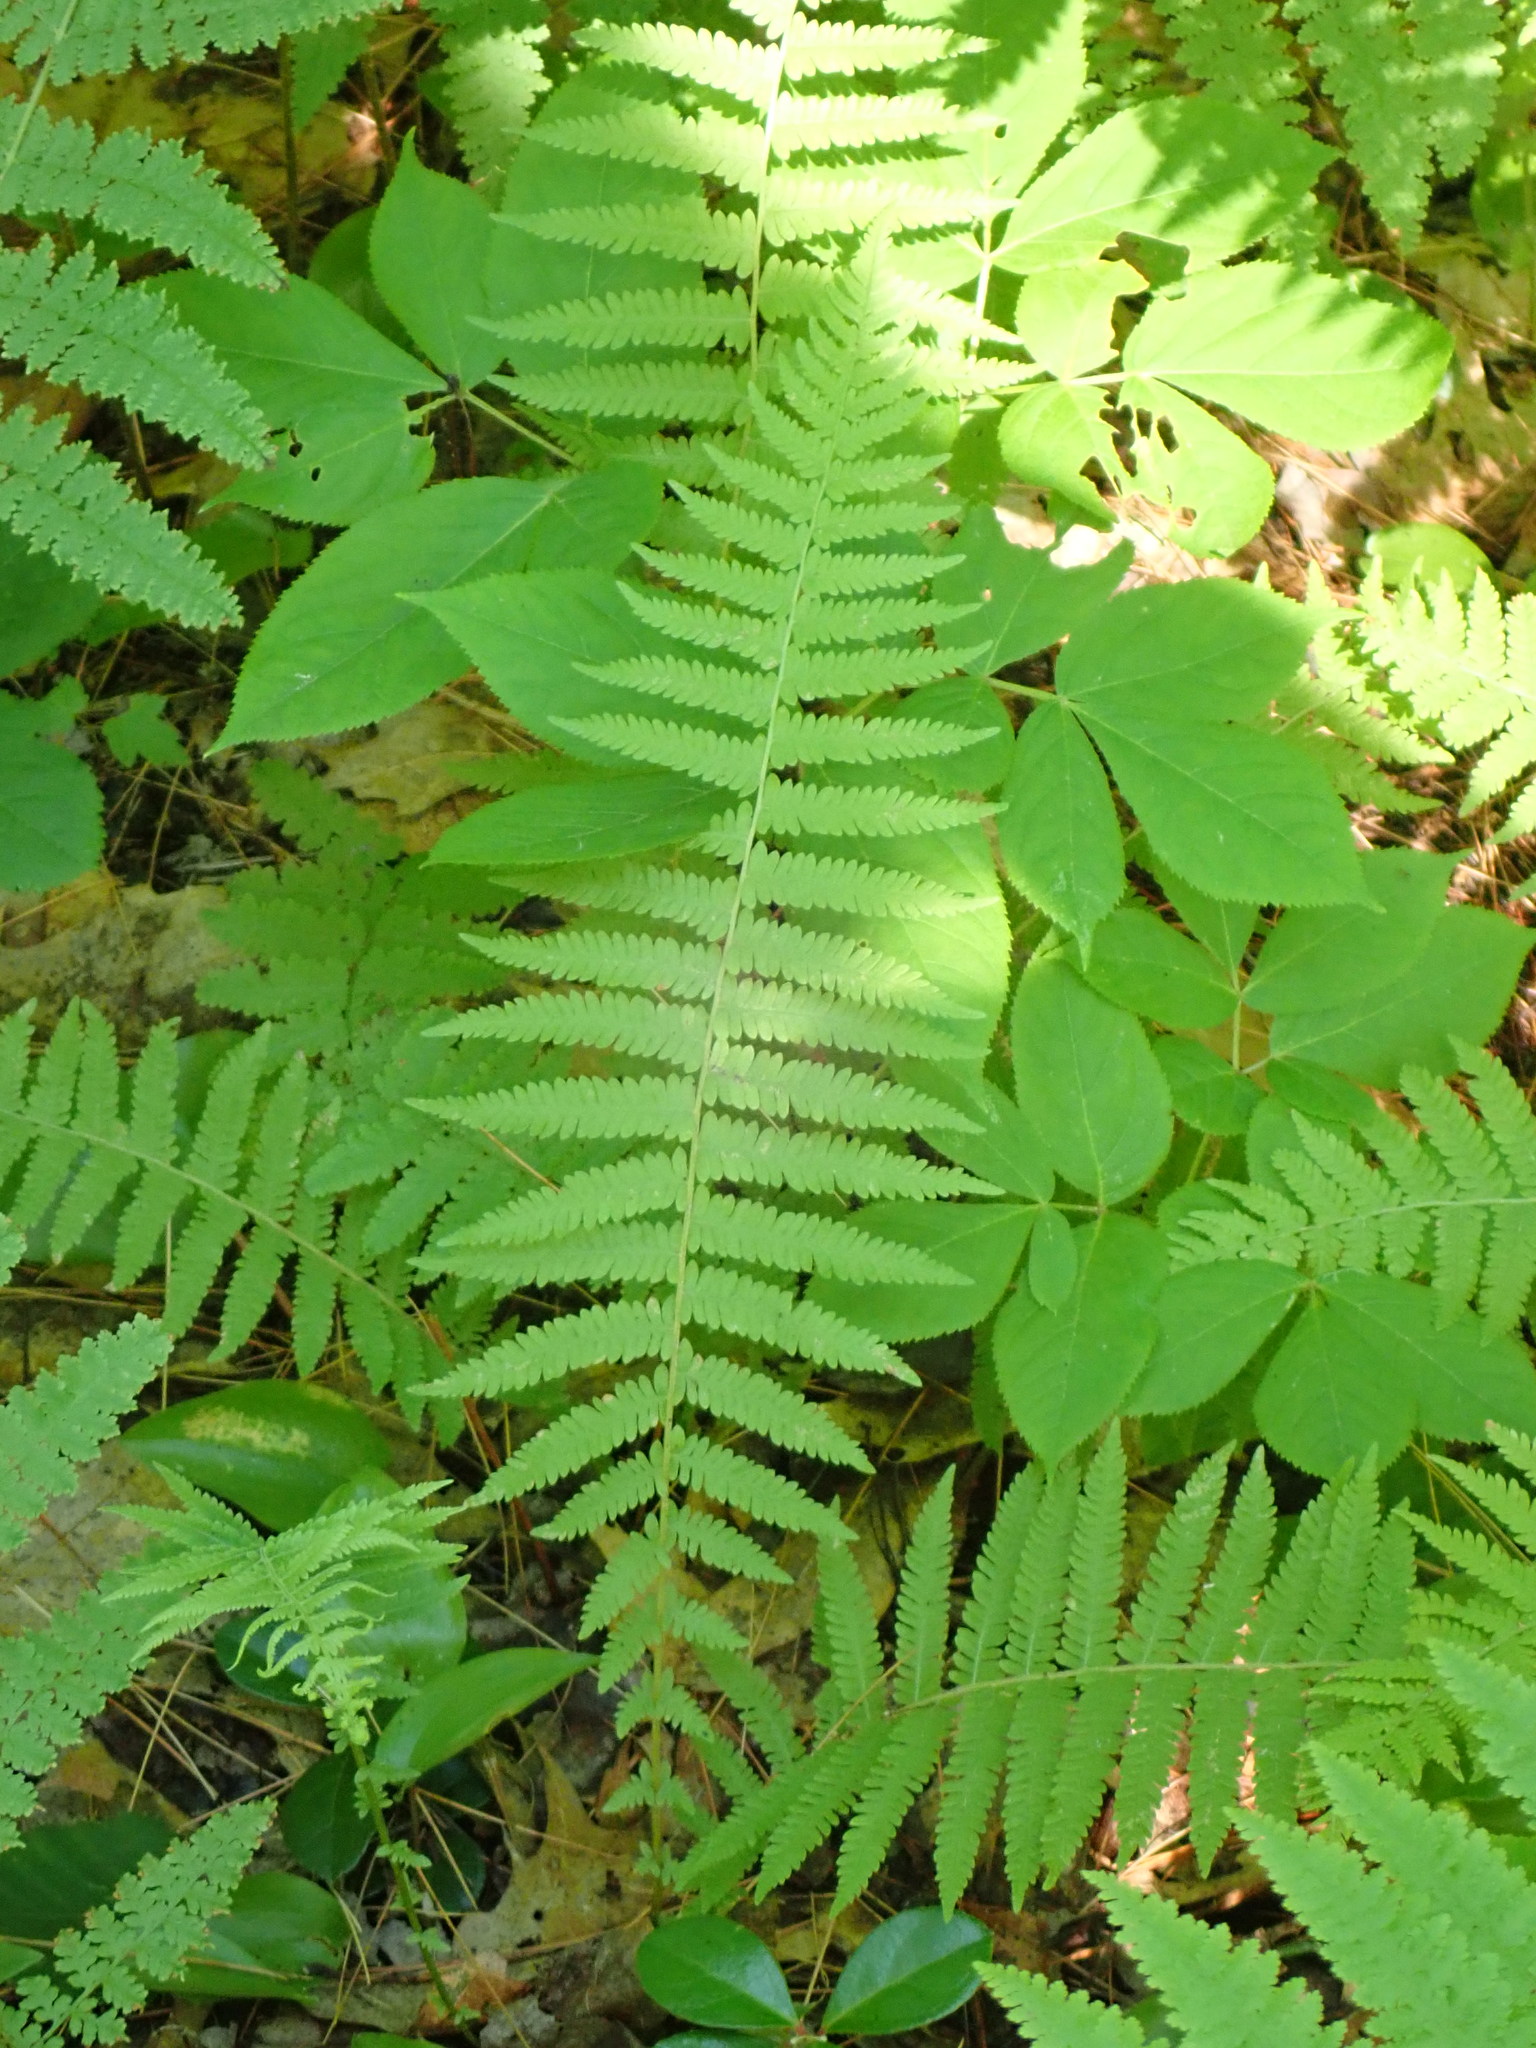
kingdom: Plantae
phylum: Tracheophyta
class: Polypodiopsida
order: Polypodiales
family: Thelypteridaceae
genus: Amauropelta
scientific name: Amauropelta noveboracensis
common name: New york fern
